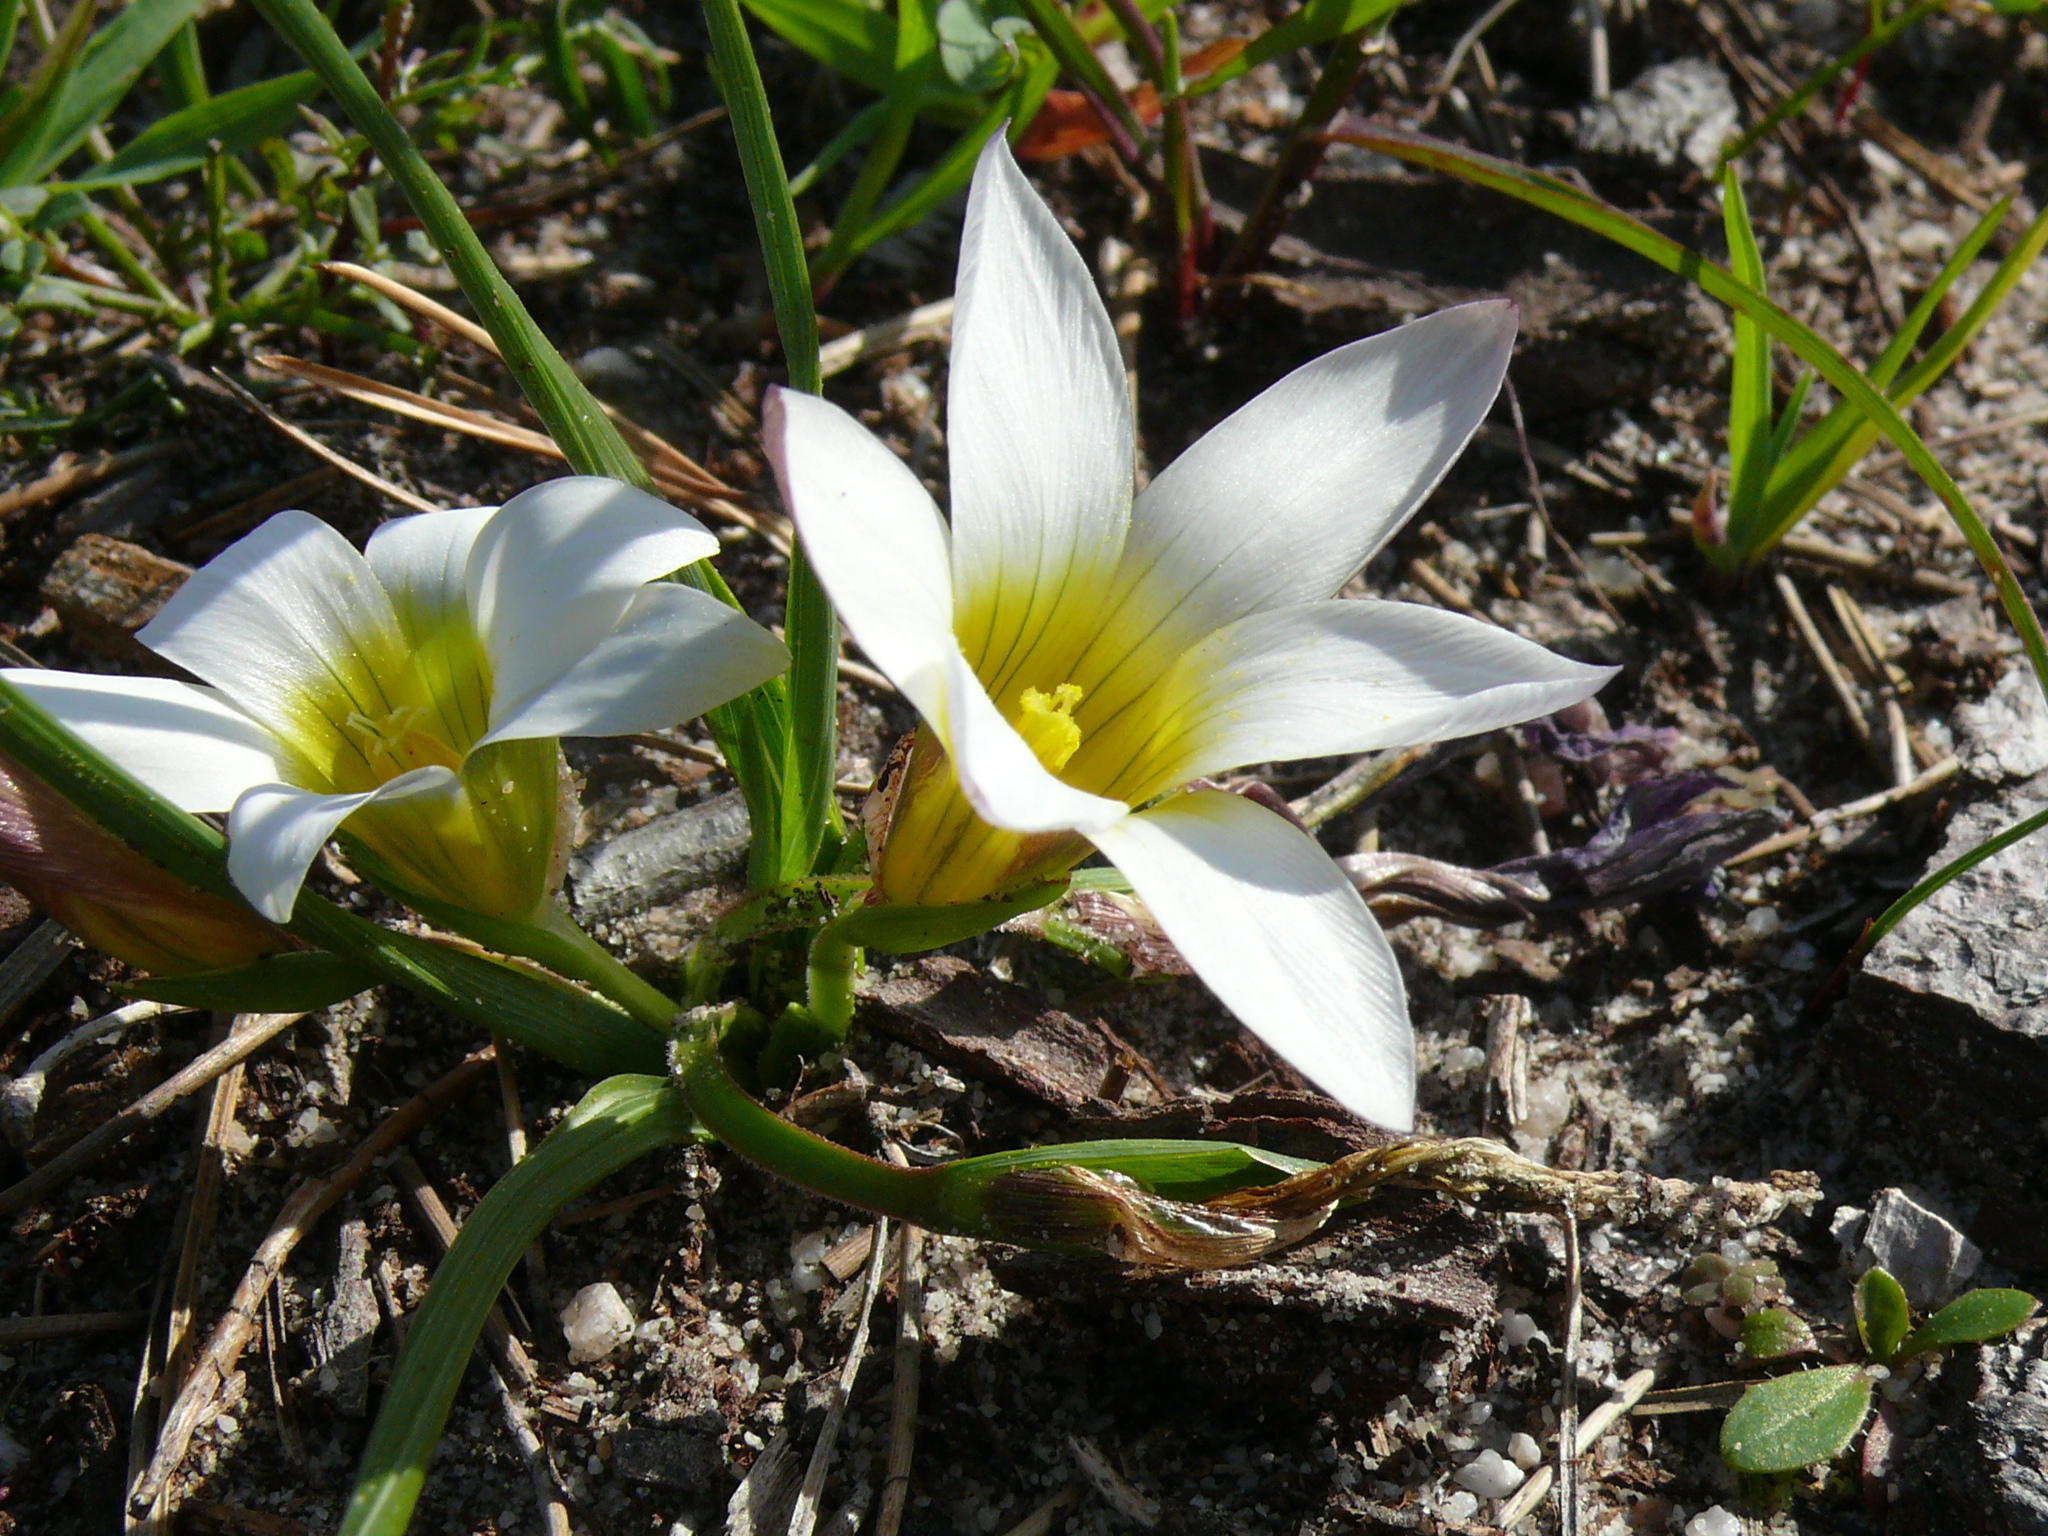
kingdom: Plantae
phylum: Tracheophyta
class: Liliopsida
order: Asparagales
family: Iridaceae
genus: Romulea
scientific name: Romulea flava
